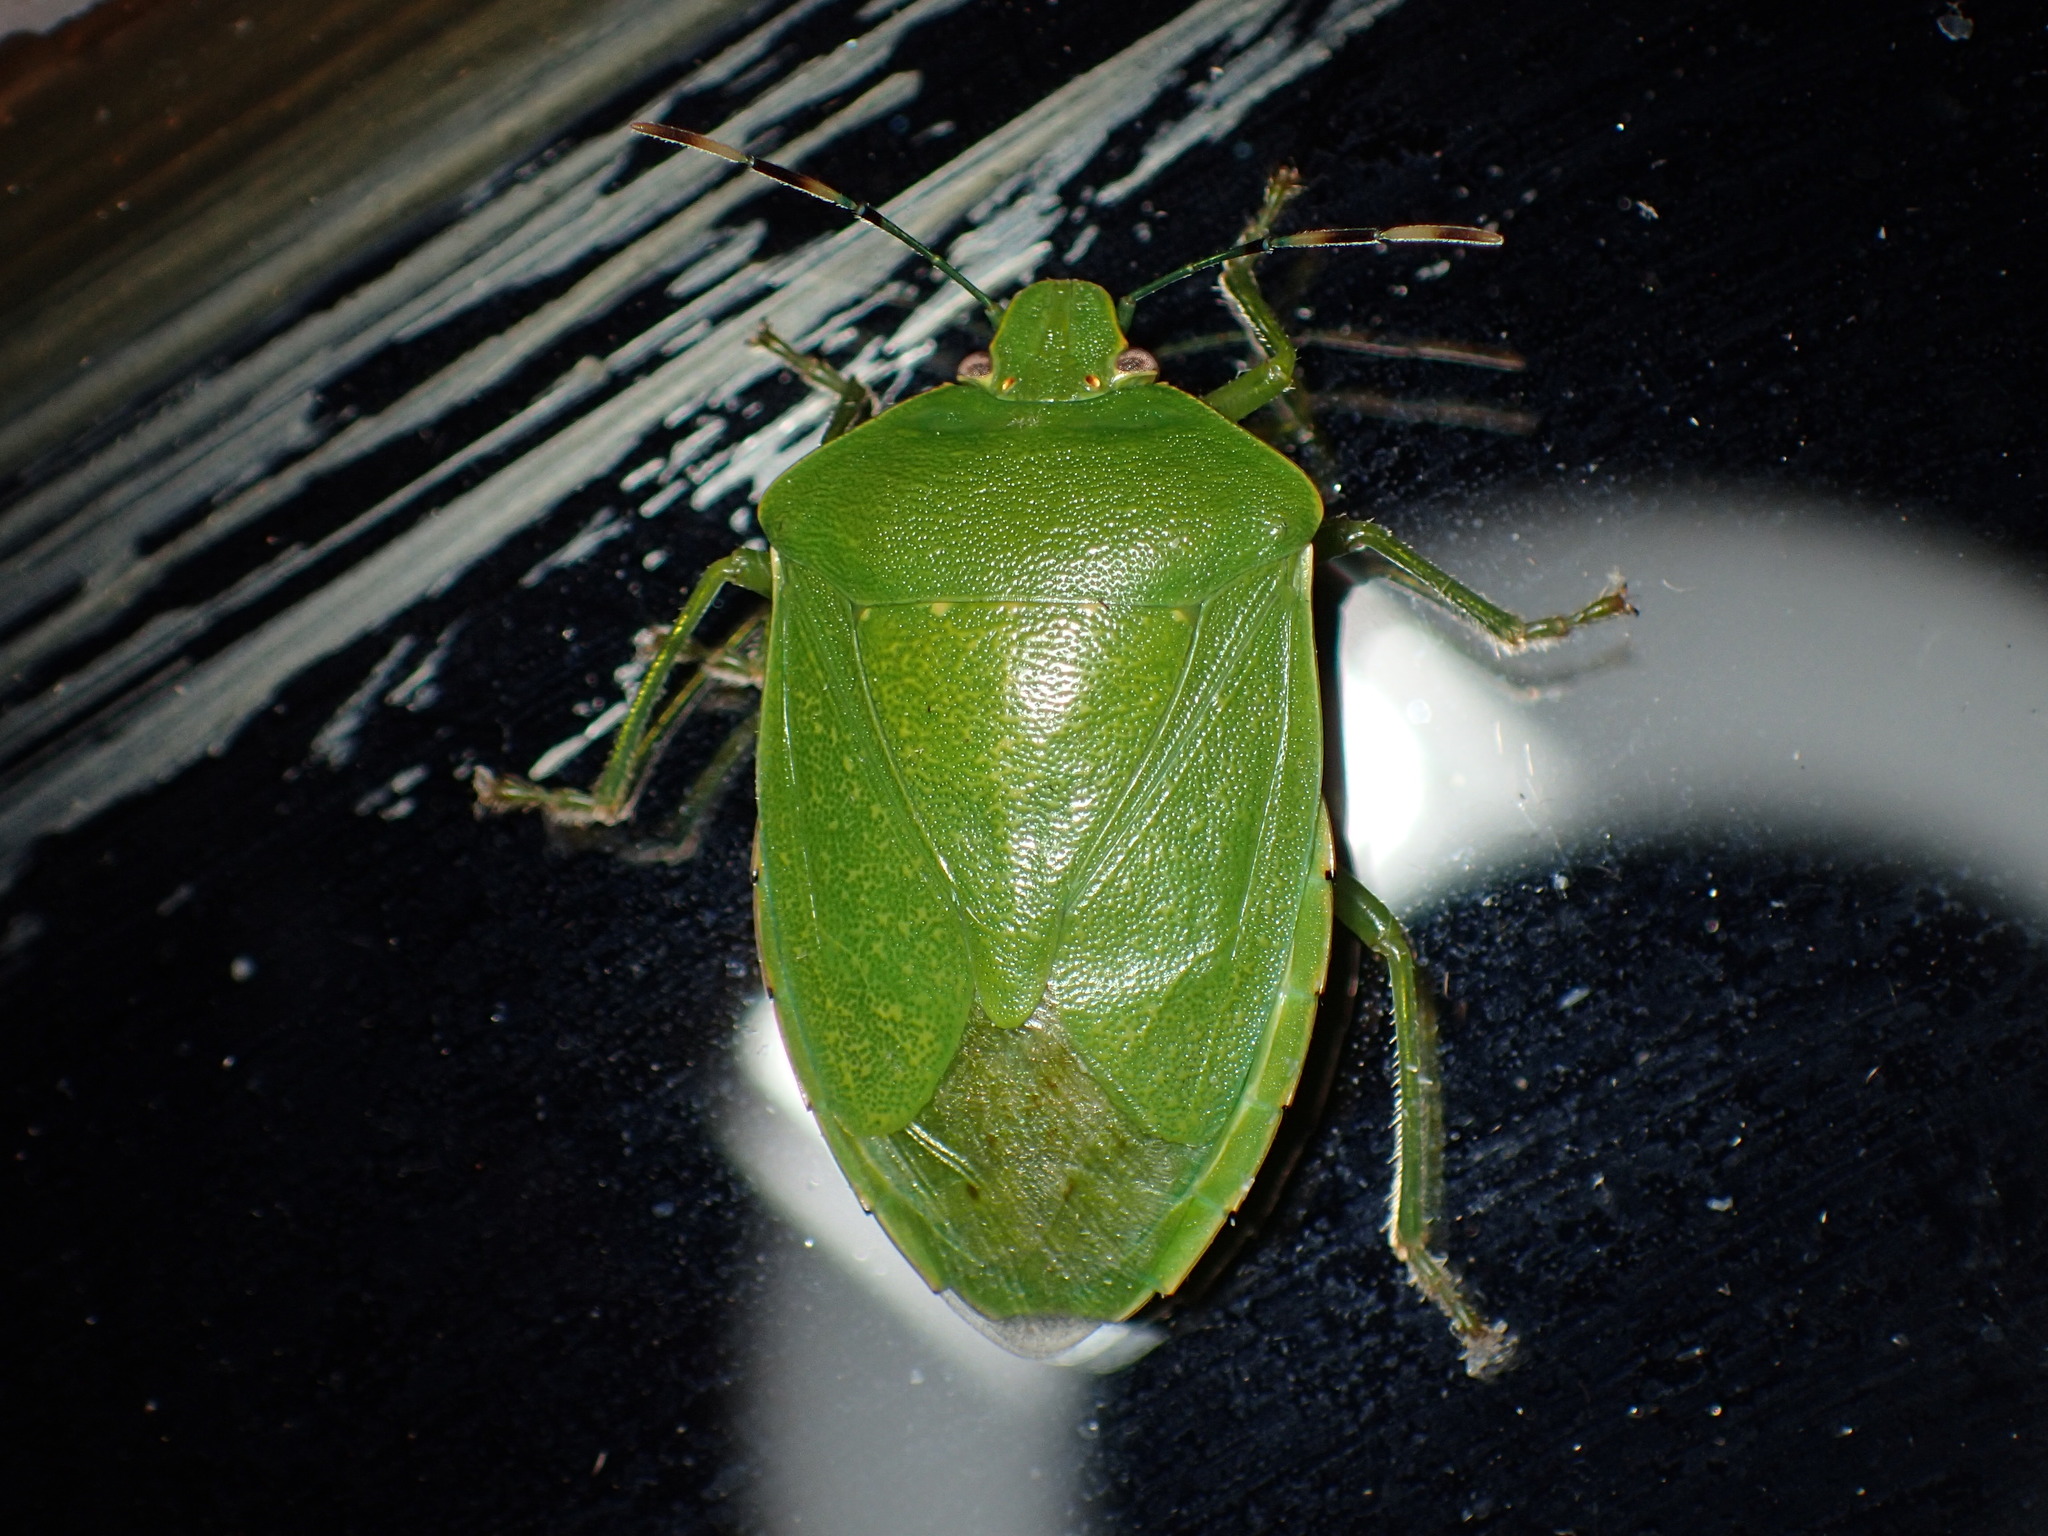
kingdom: Animalia
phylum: Arthropoda
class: Insecta
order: Hemiptera
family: Pentatomidae
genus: Chinavia
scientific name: Chinavia hilaris
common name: Green stink bug
